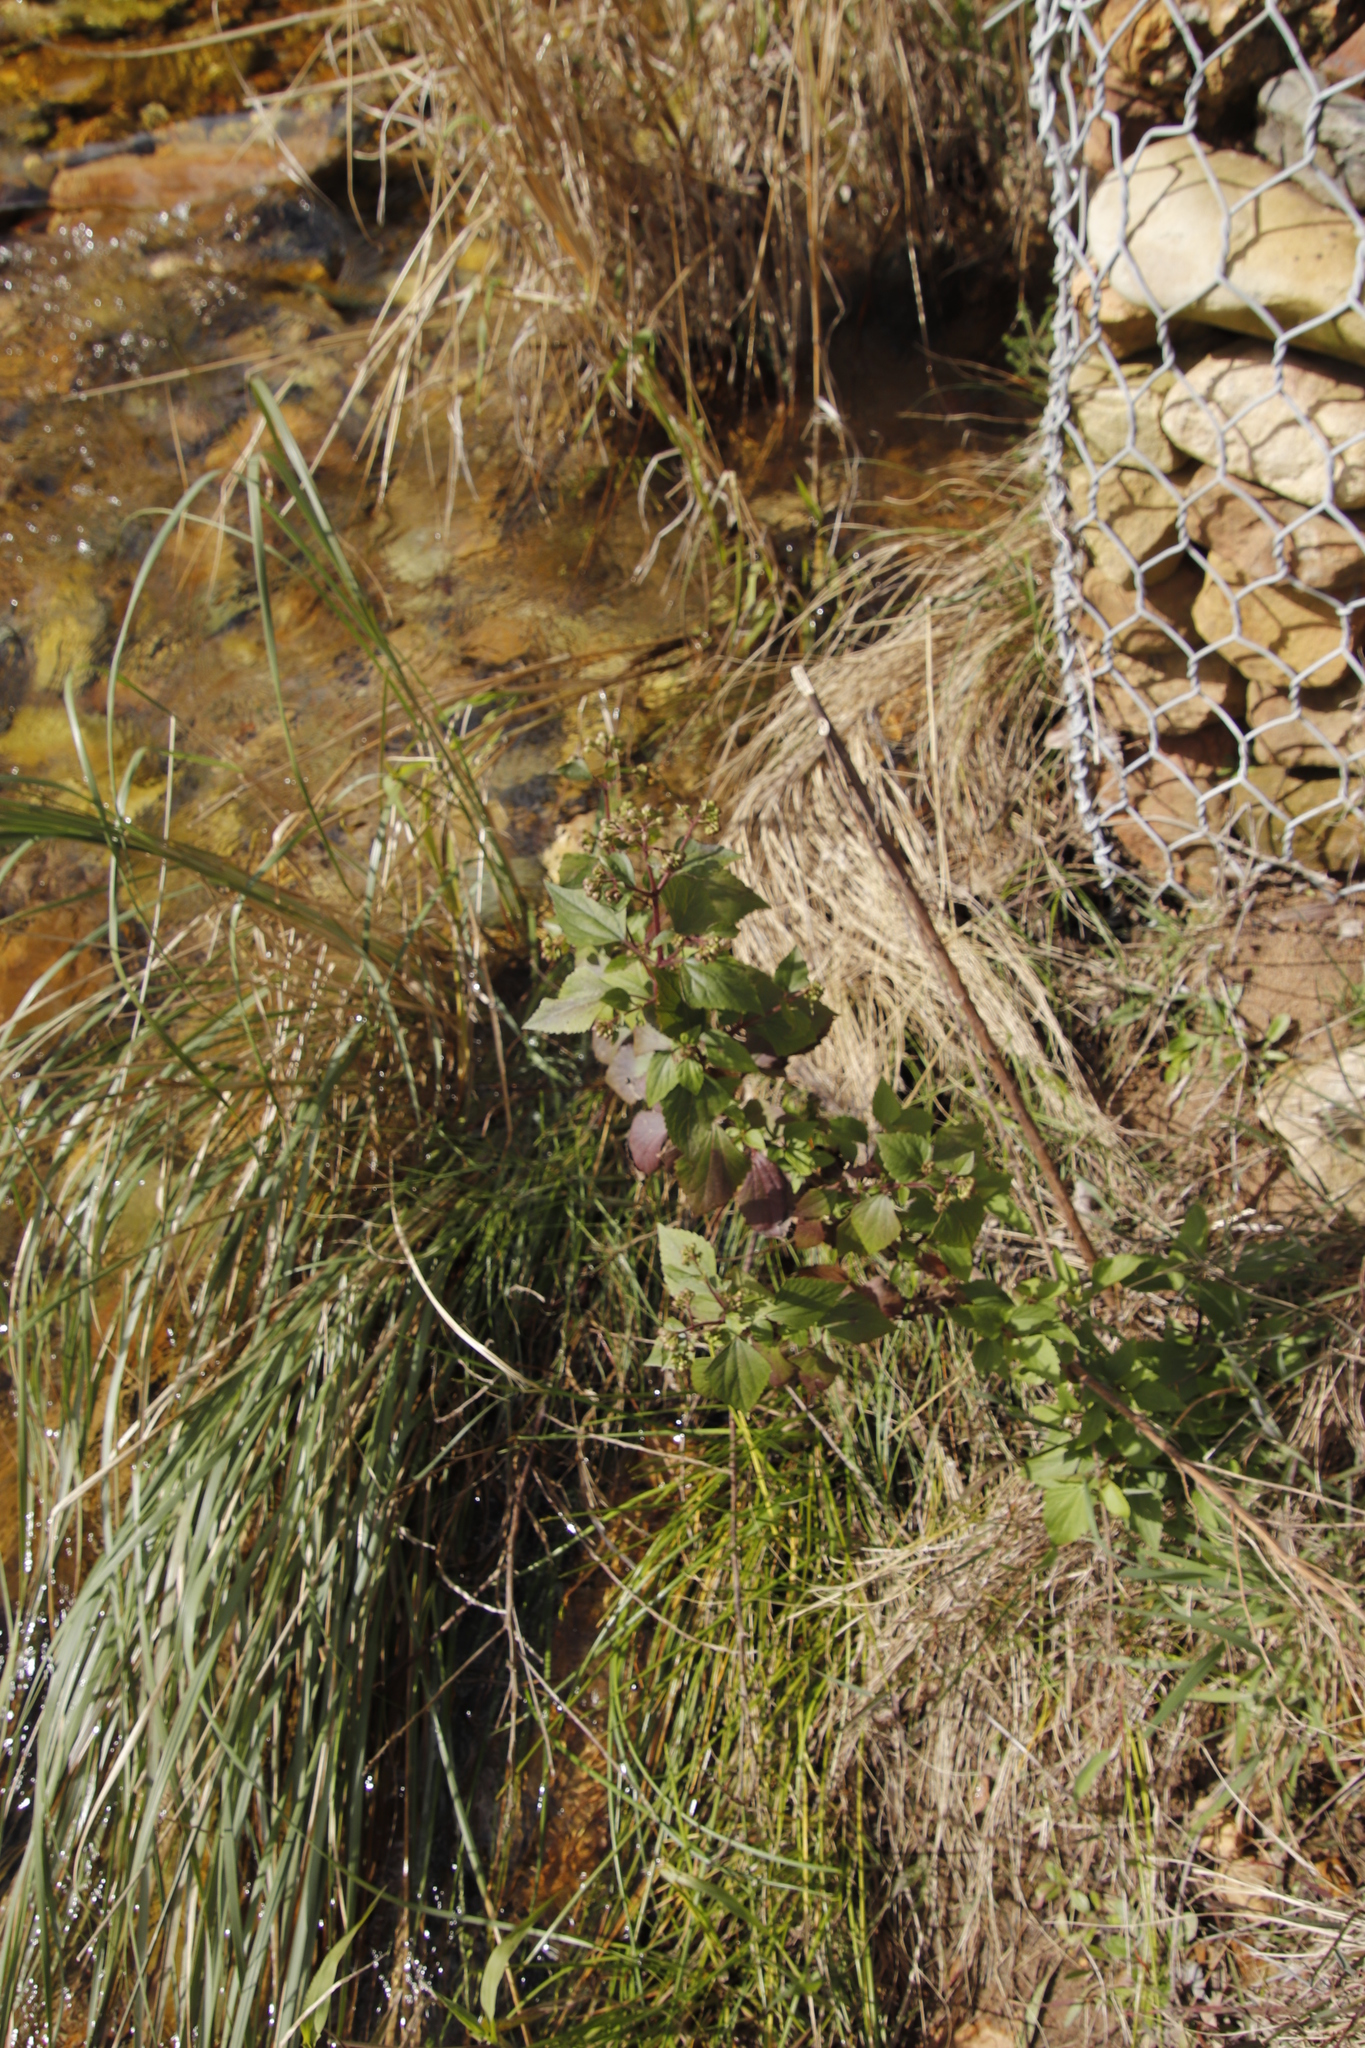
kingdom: Plantae
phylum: Tracheophyta
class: Magnoliopsida
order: Asterales
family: Asteraceae
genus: Ageratina
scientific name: Ageratina adenophora
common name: Sticky snakeroot
